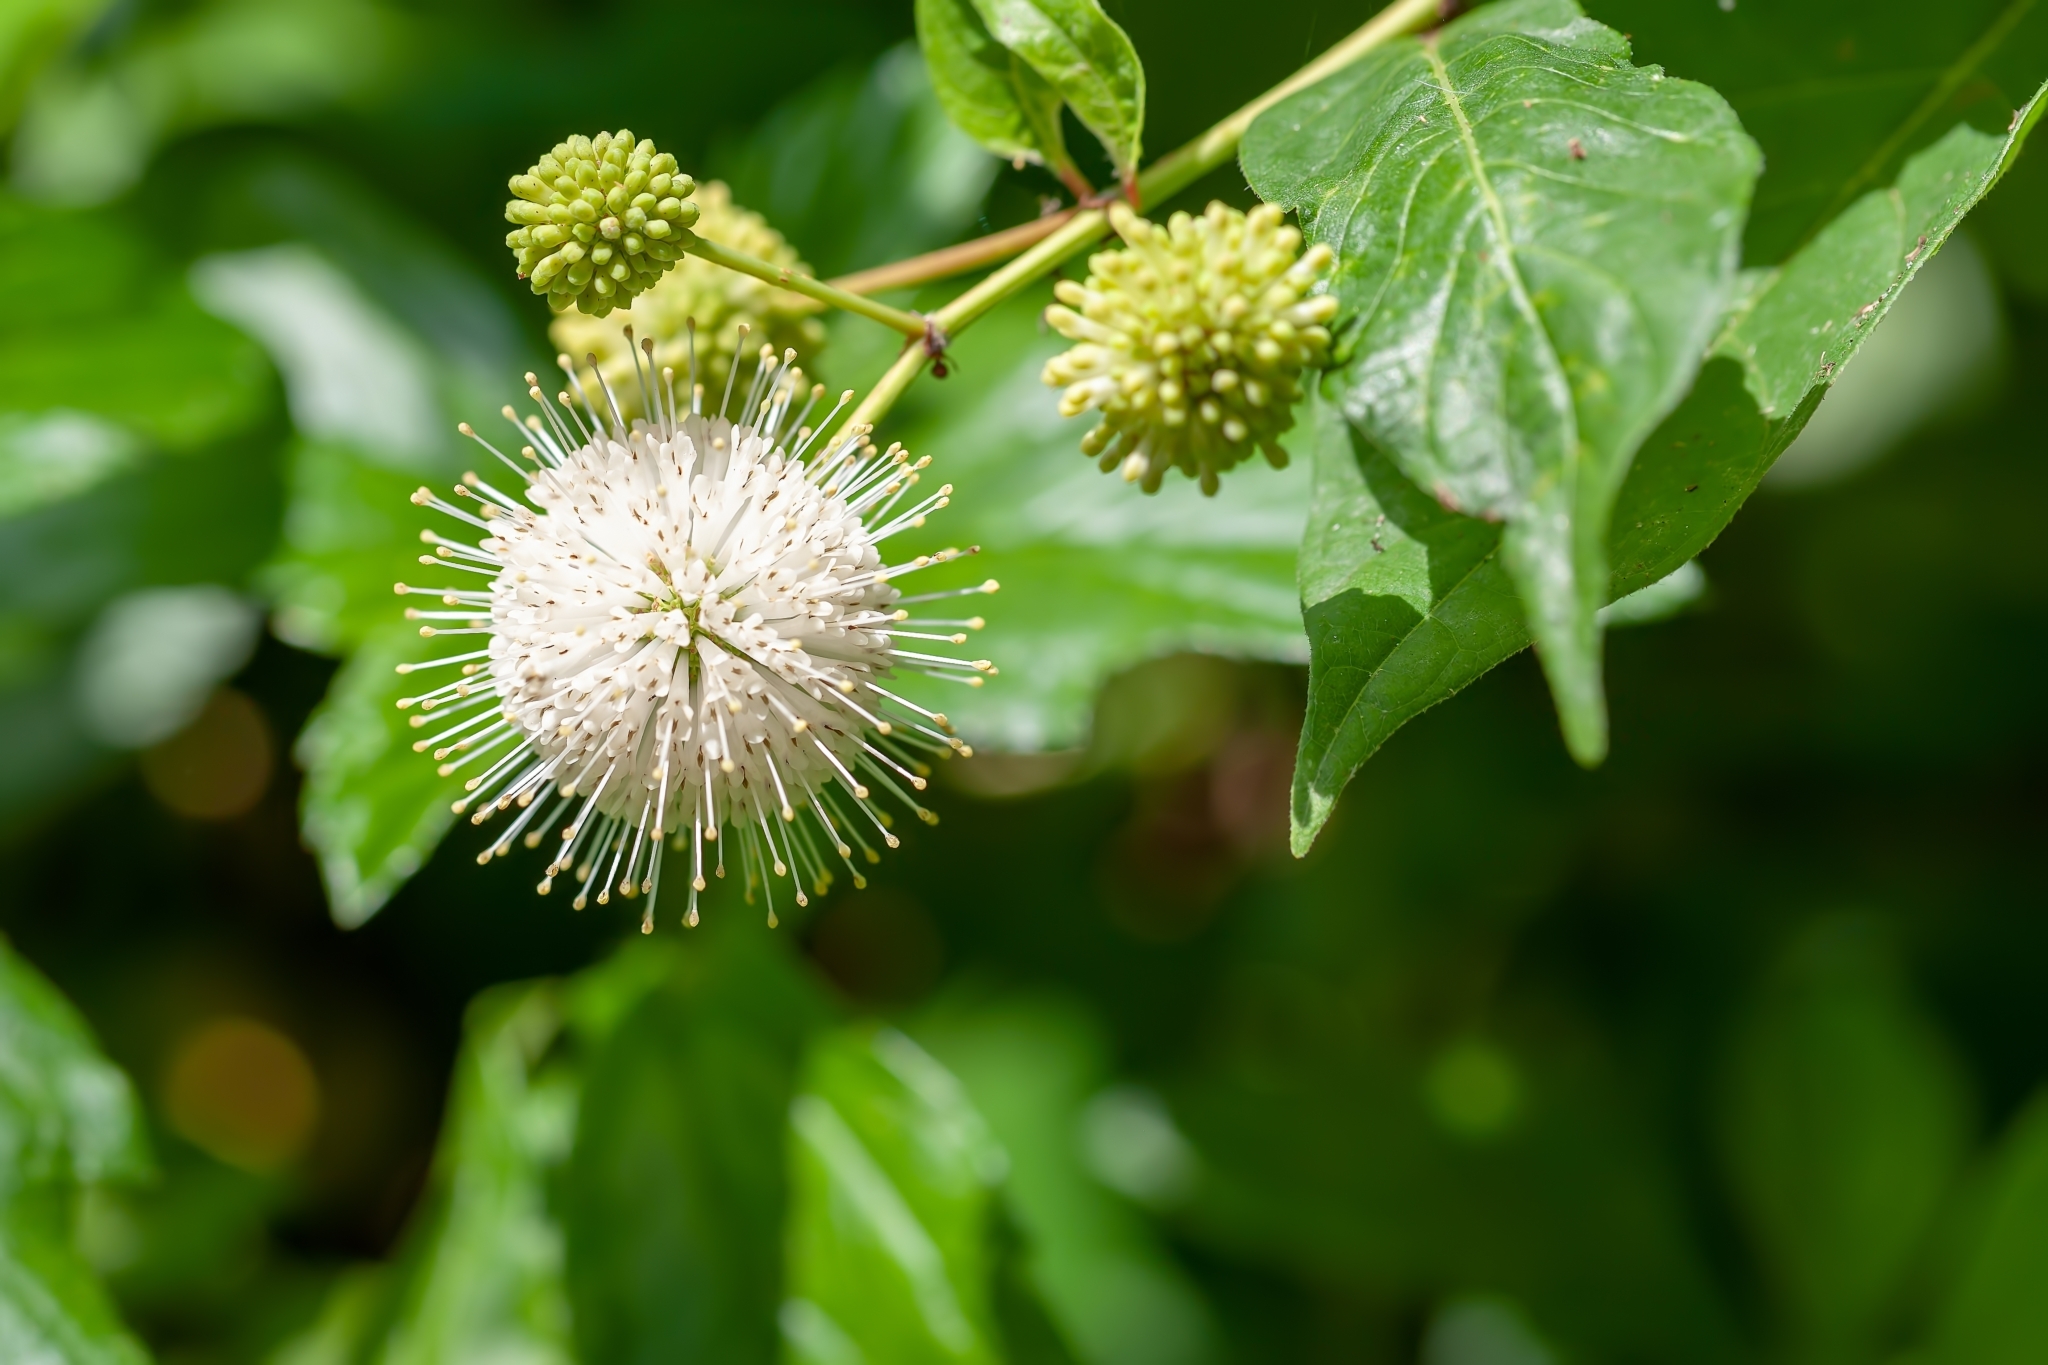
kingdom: Plantae
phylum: Tracheophyta
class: Magnoliopsida
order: Gentianales
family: Rubiaceae
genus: Cephalanthus
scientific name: Cephalanthus occidentalis
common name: Button-willow
